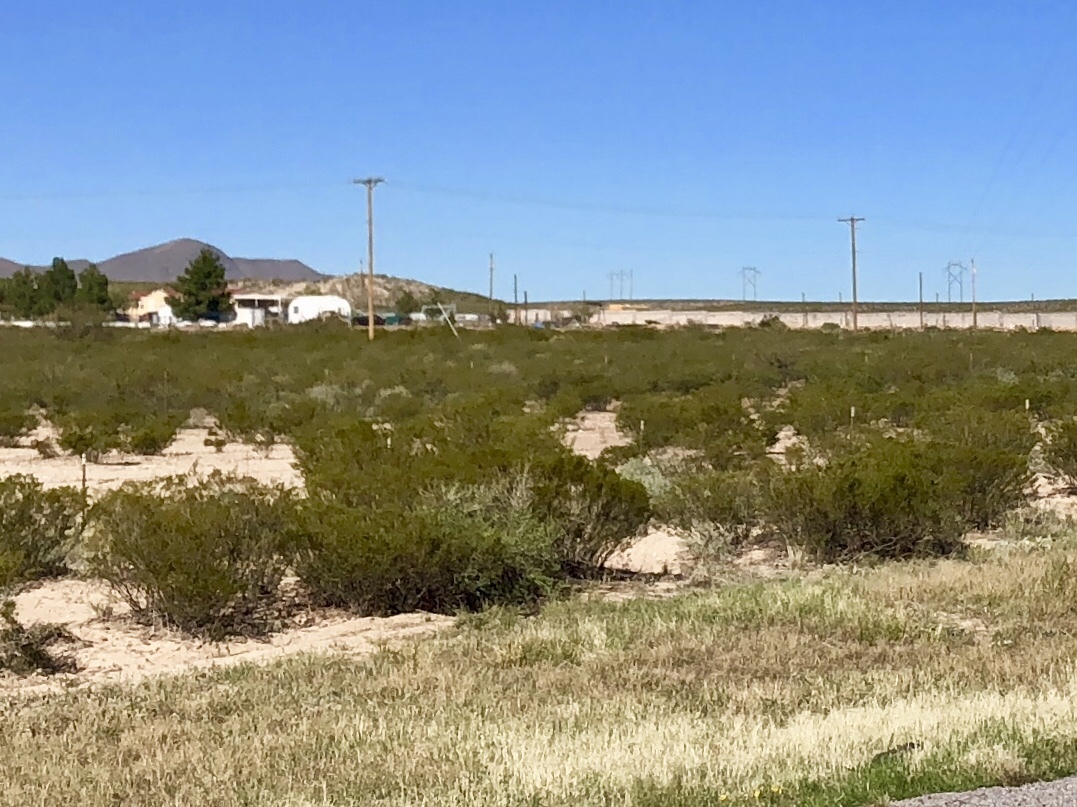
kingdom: Plantae
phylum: Tracheophyta
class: Magnoliopsida
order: Zygophyllales
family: Zygophyllaceae
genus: Larrea
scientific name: Larrea tridentata
